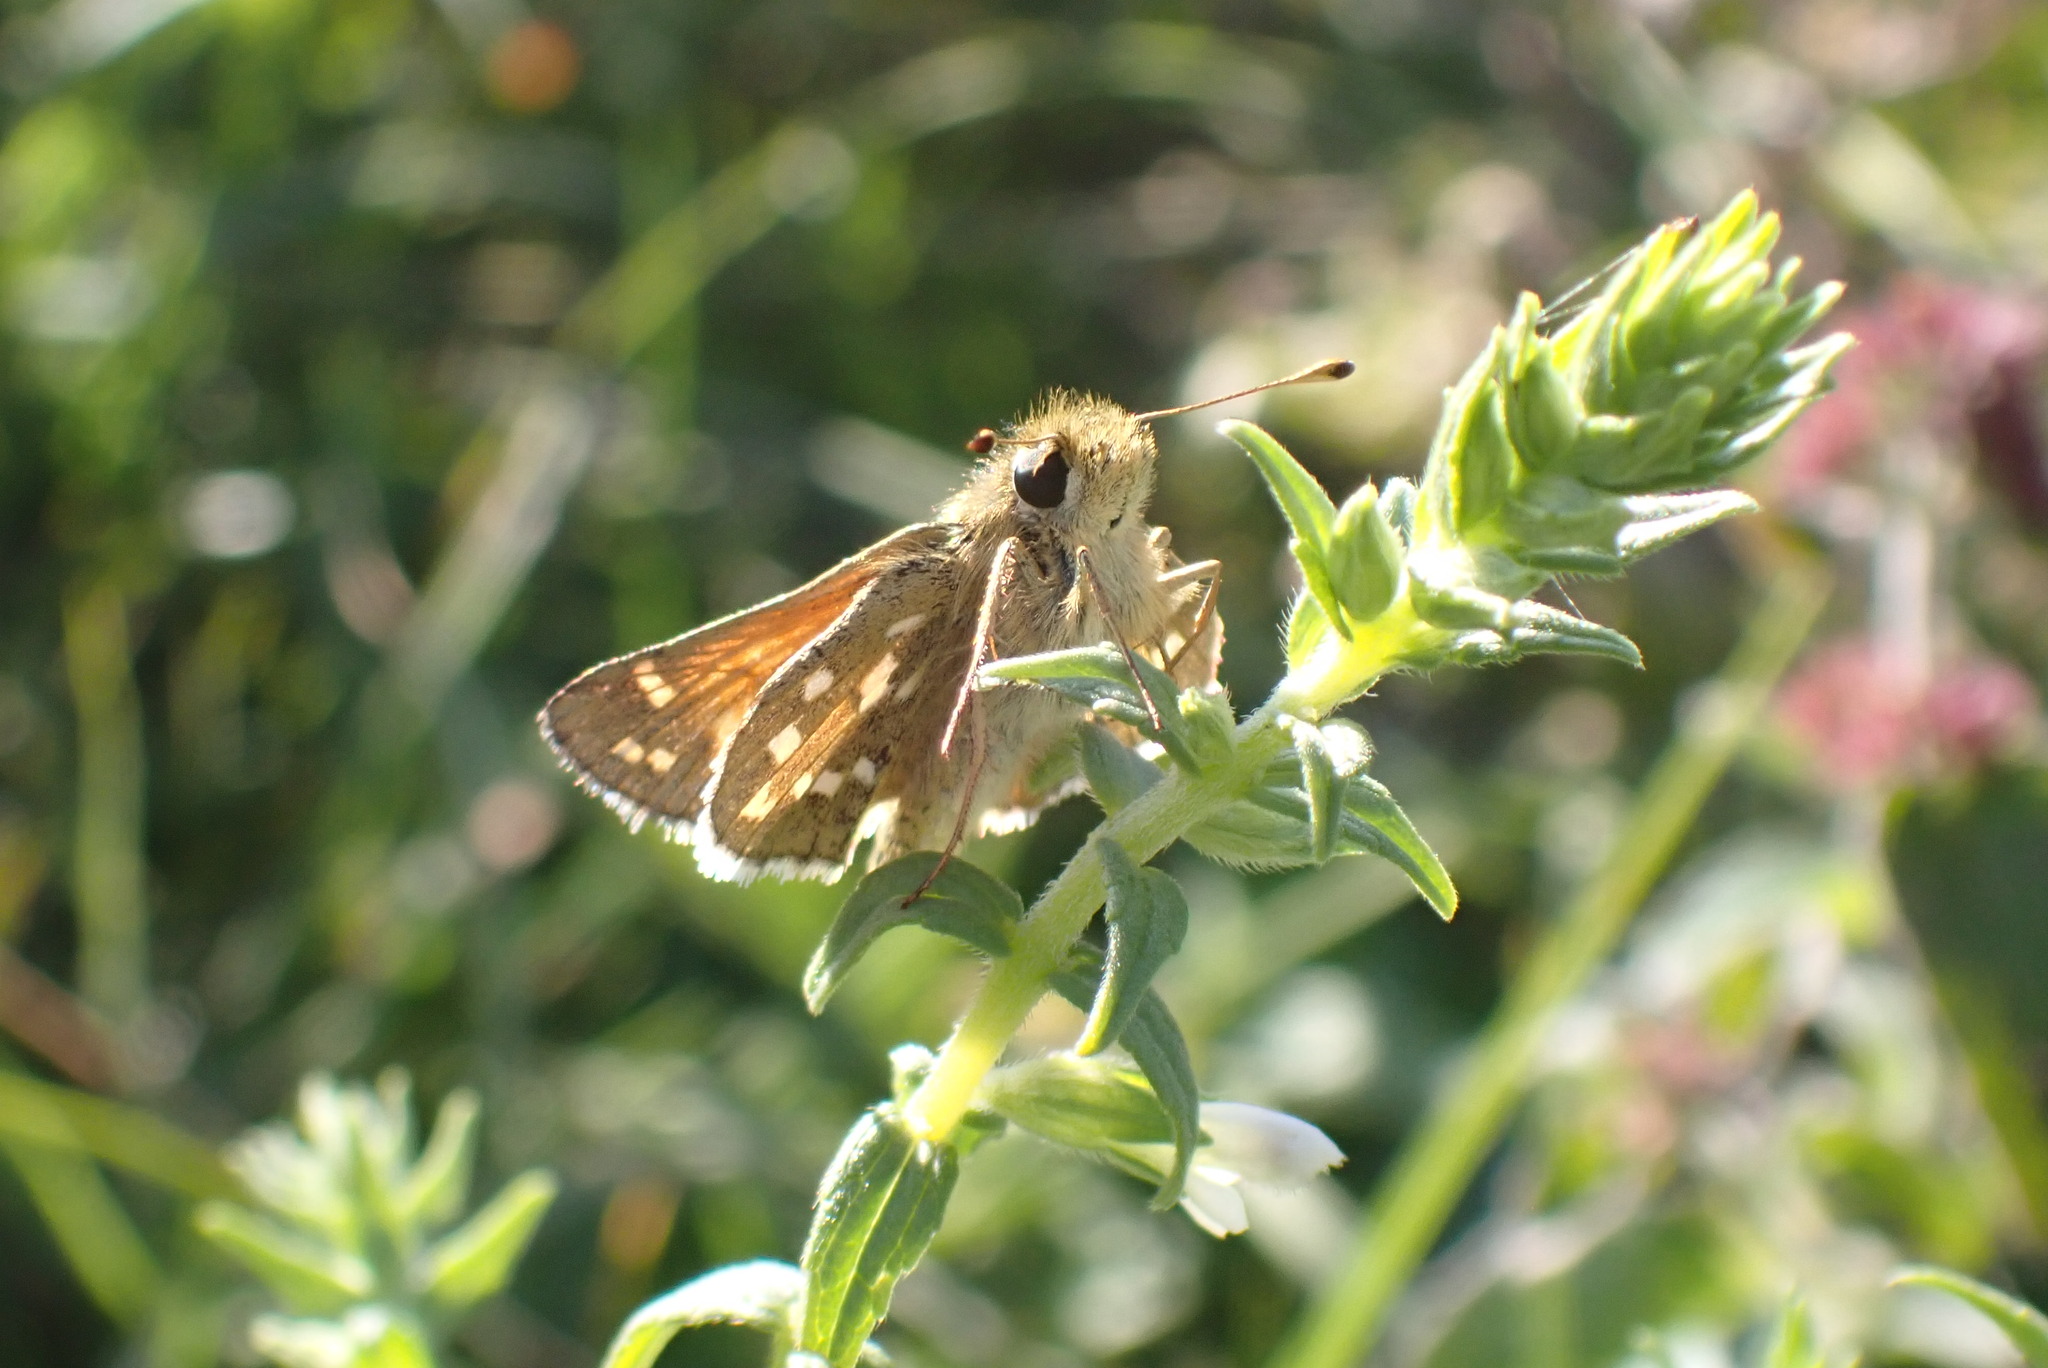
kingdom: Animalia
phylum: Arthropoda
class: Insecta
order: Lepidoptera
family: Hesperiidae
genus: Hesperia
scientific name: Hesperia comma
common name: Common branded skipper
